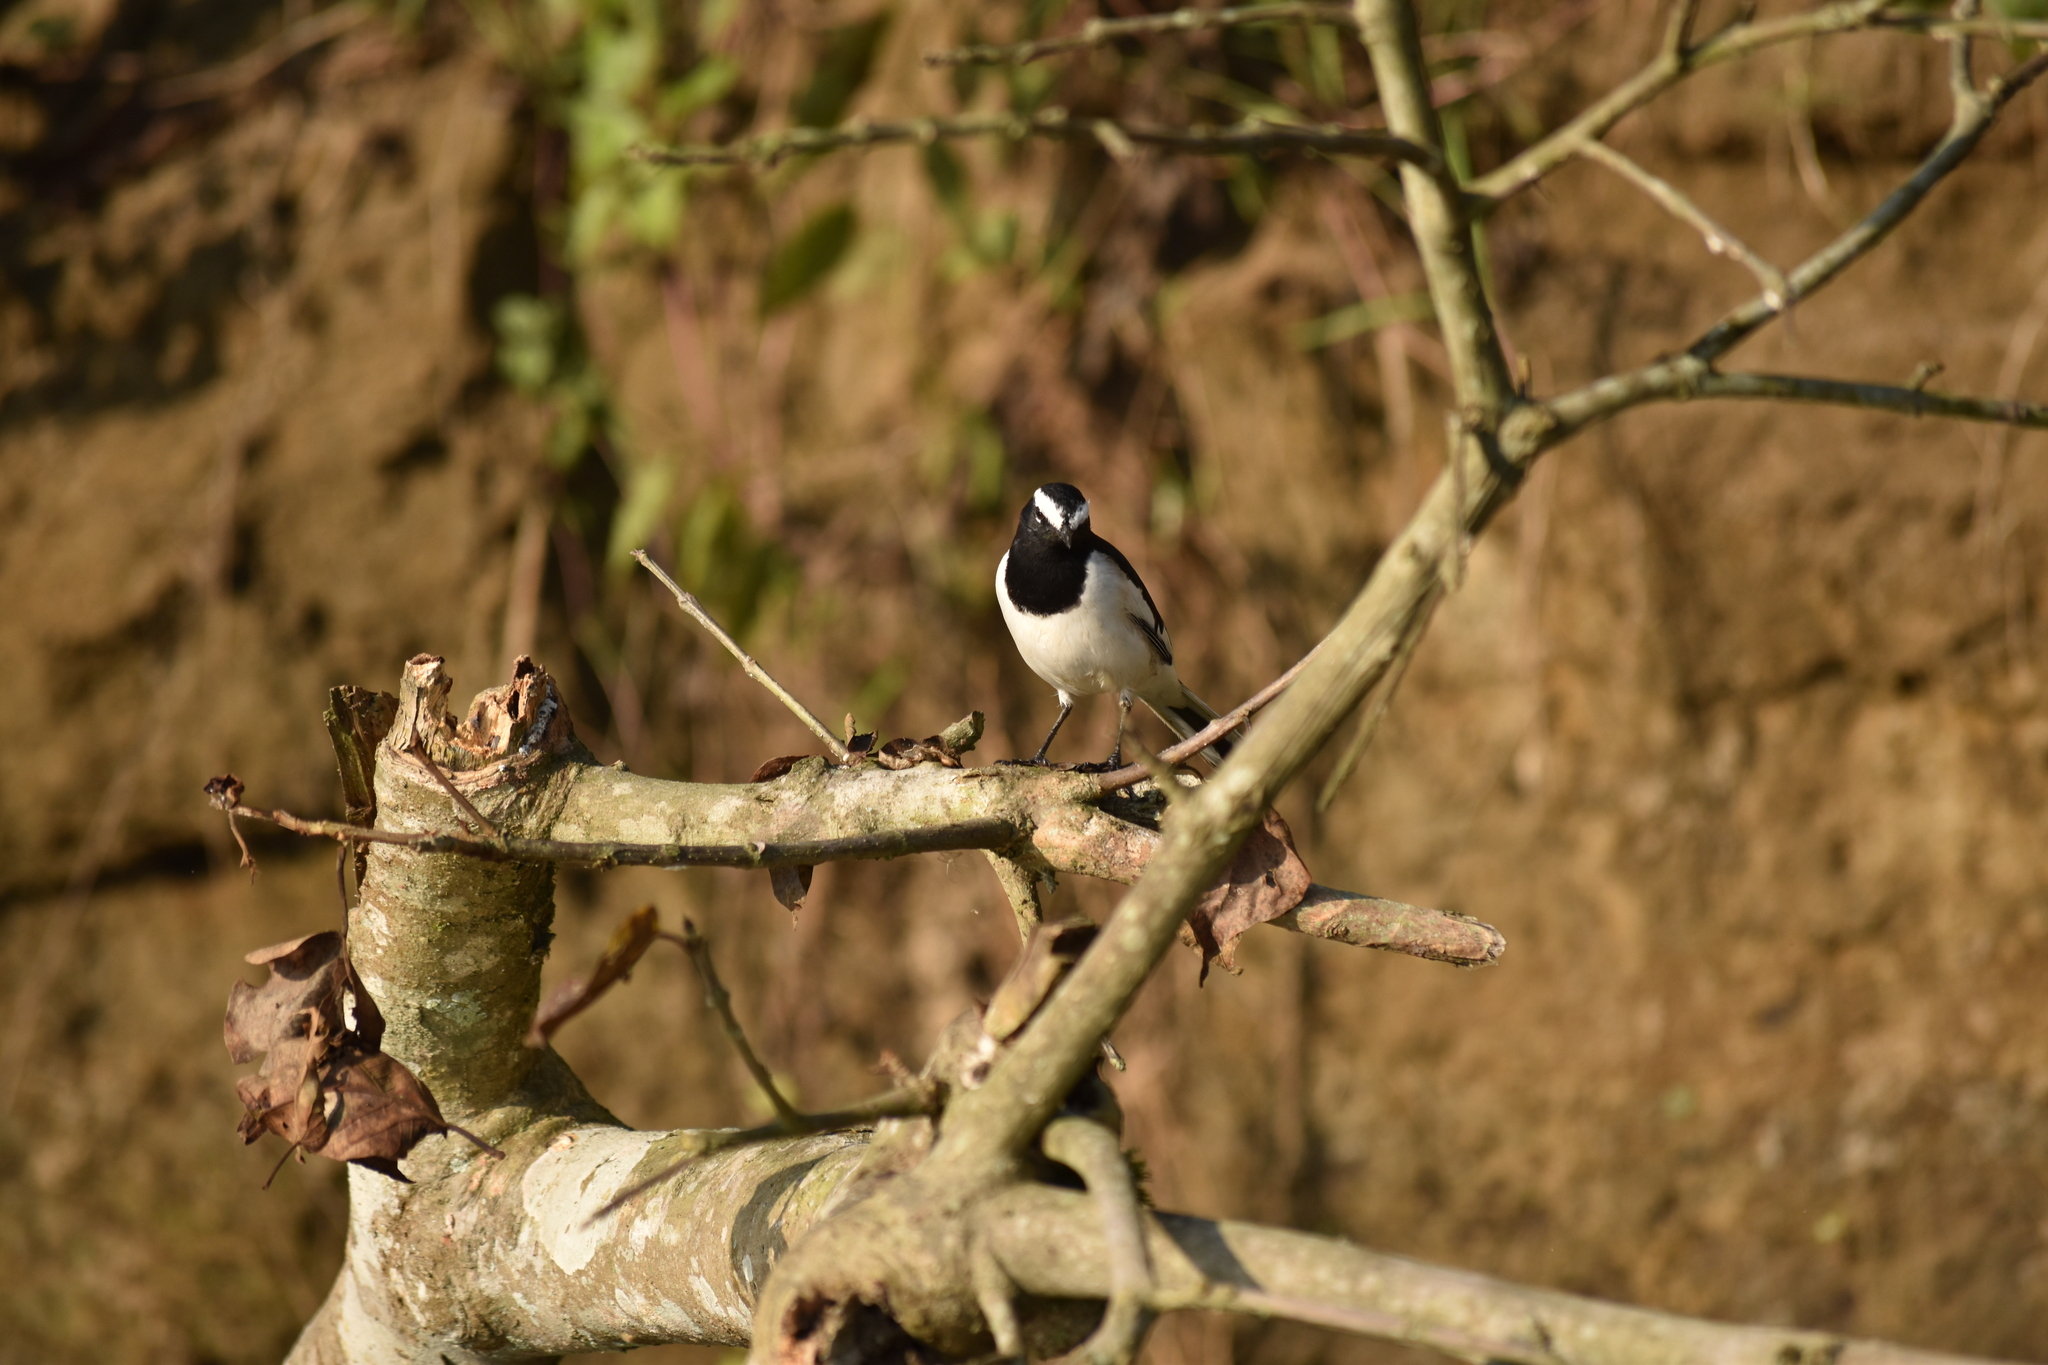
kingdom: Animalia
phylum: Chordata
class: Aves
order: Passeriformes
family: Motacillidae
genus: Motacilla
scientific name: Motacilla maderaspatensis
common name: White-browed wagtail
